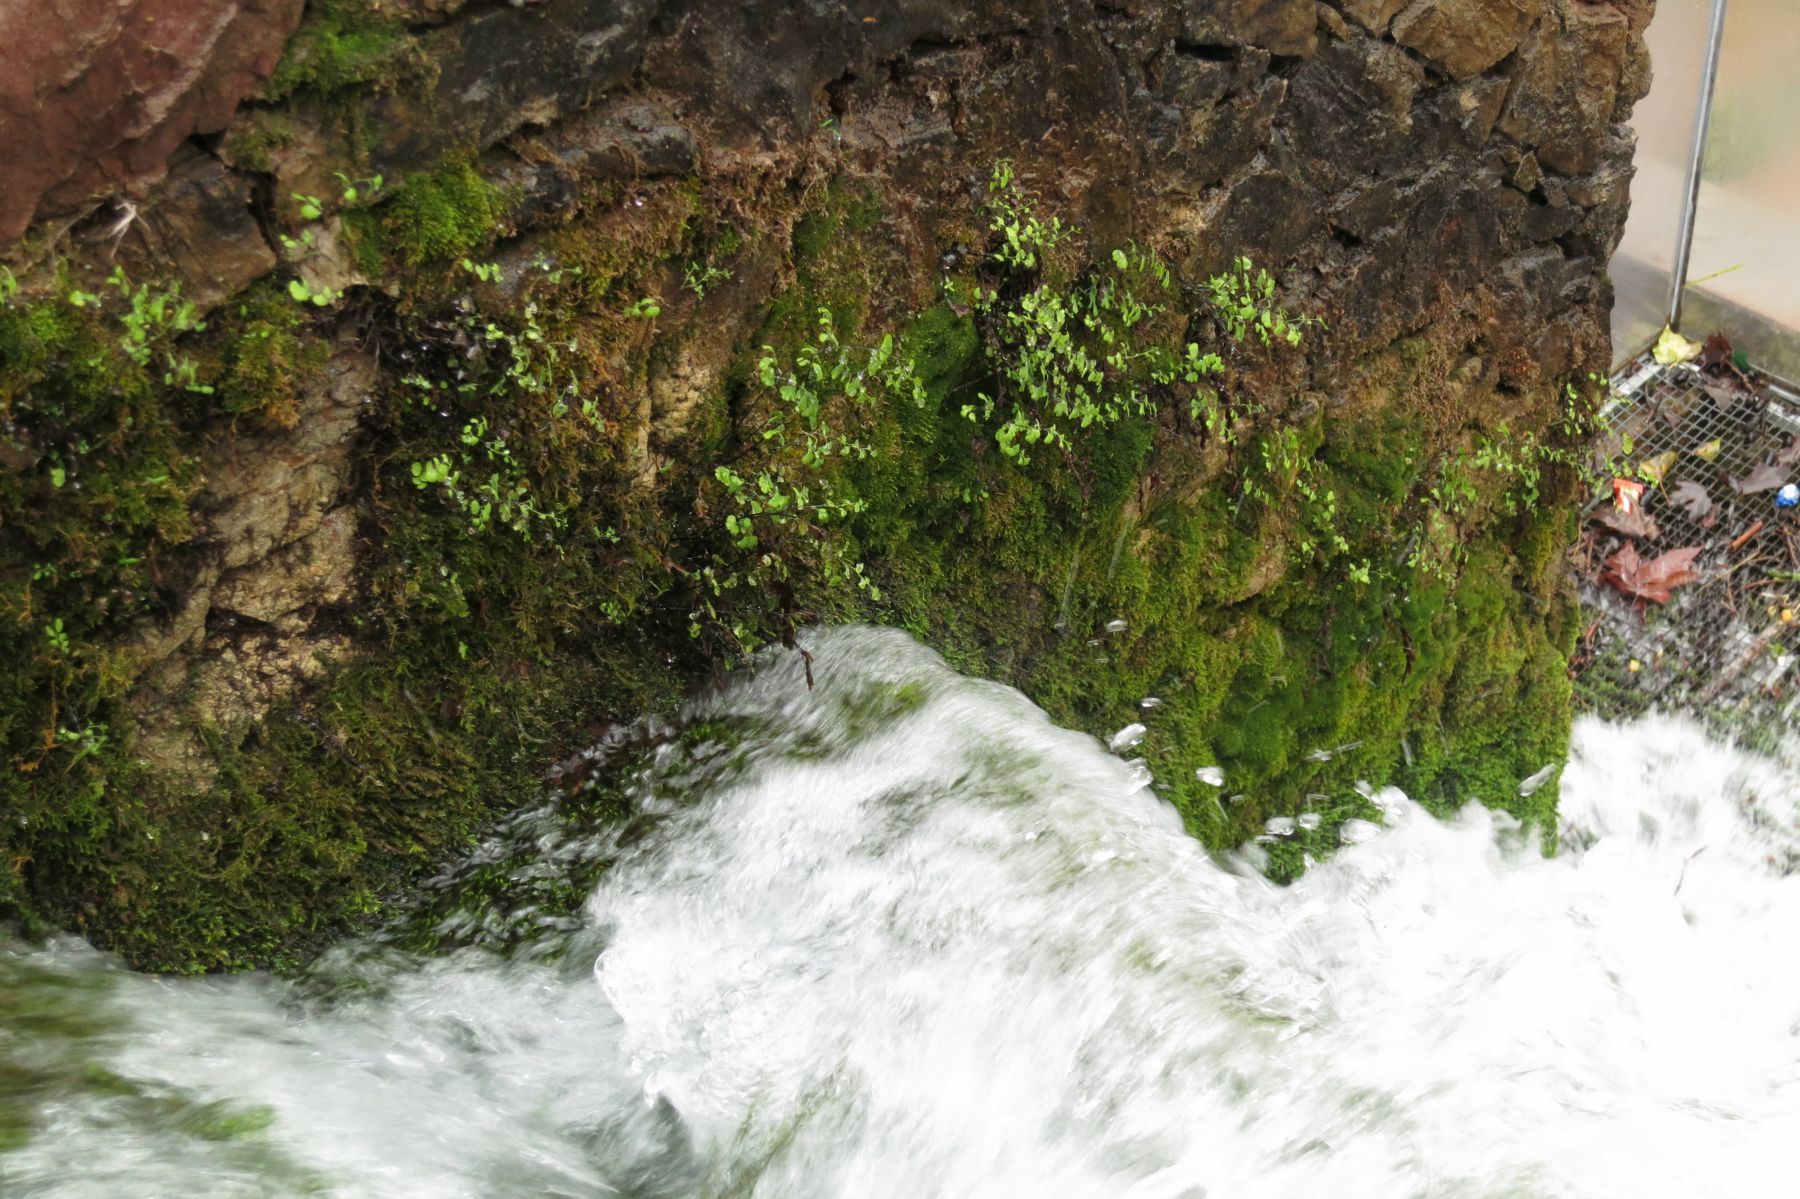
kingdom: Plantae
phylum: Tracheophyta
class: Polypodiopsida
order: Polypodiales
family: Pteridaceae
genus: Adiantum
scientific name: Adiantum capillus-veneris
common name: Maidenhair fern
